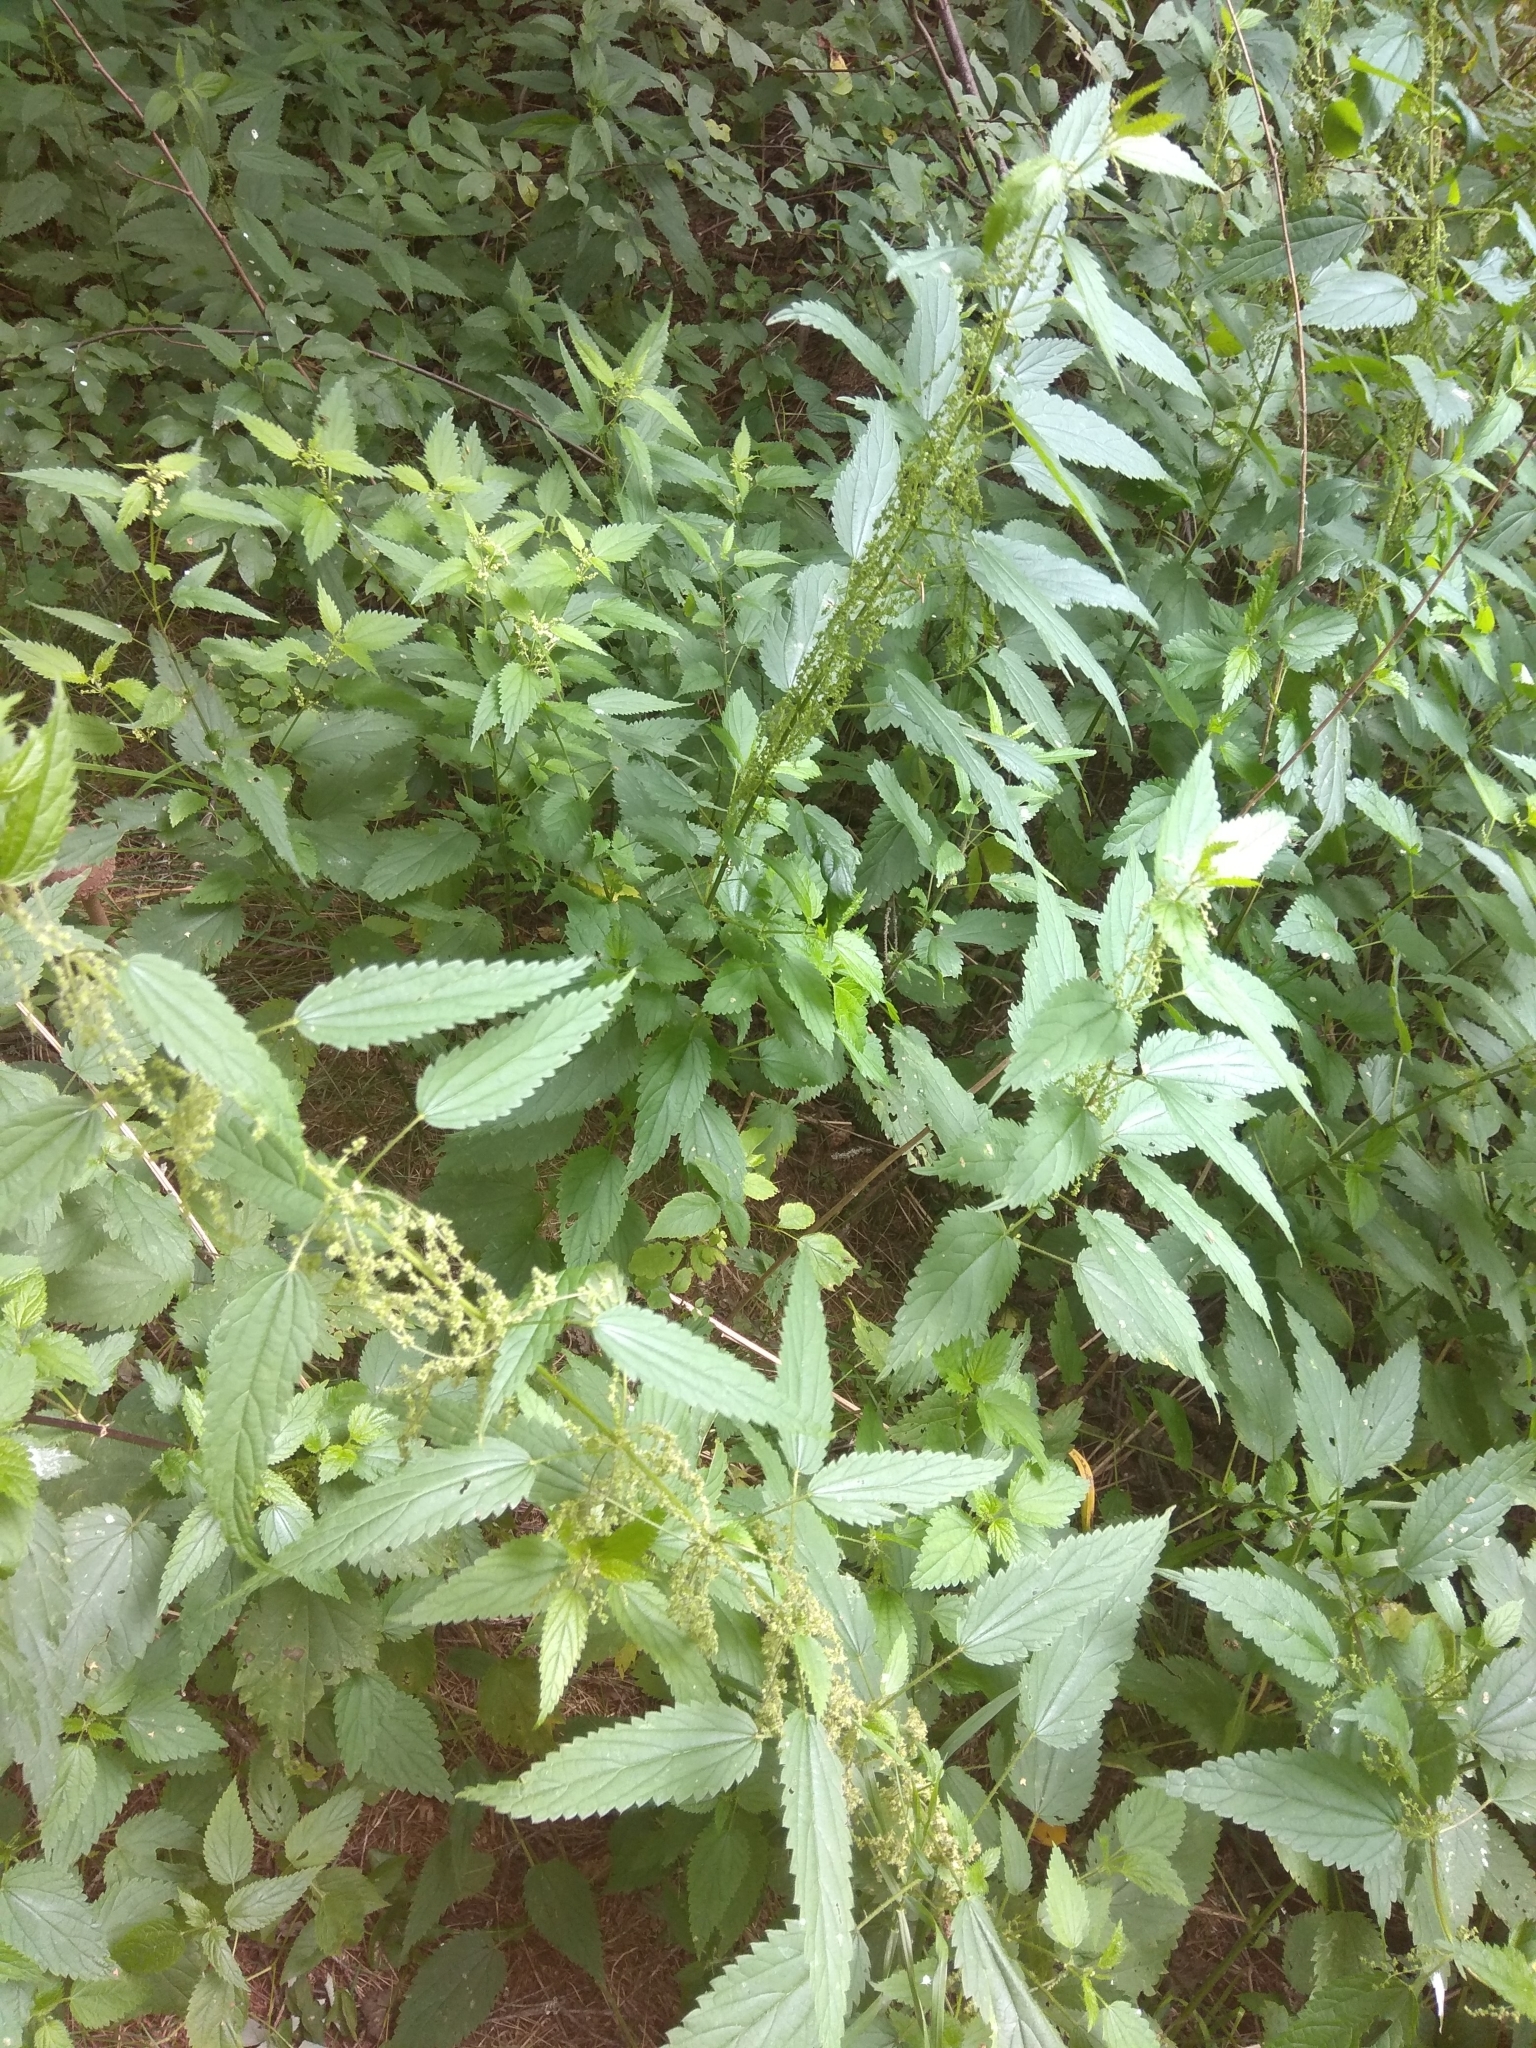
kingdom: Plantae
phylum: Tracheophyta
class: Magnoliopsida
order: Rosales
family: Urticaceae
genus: Urtica
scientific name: Urtica dioica
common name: Common nettle
